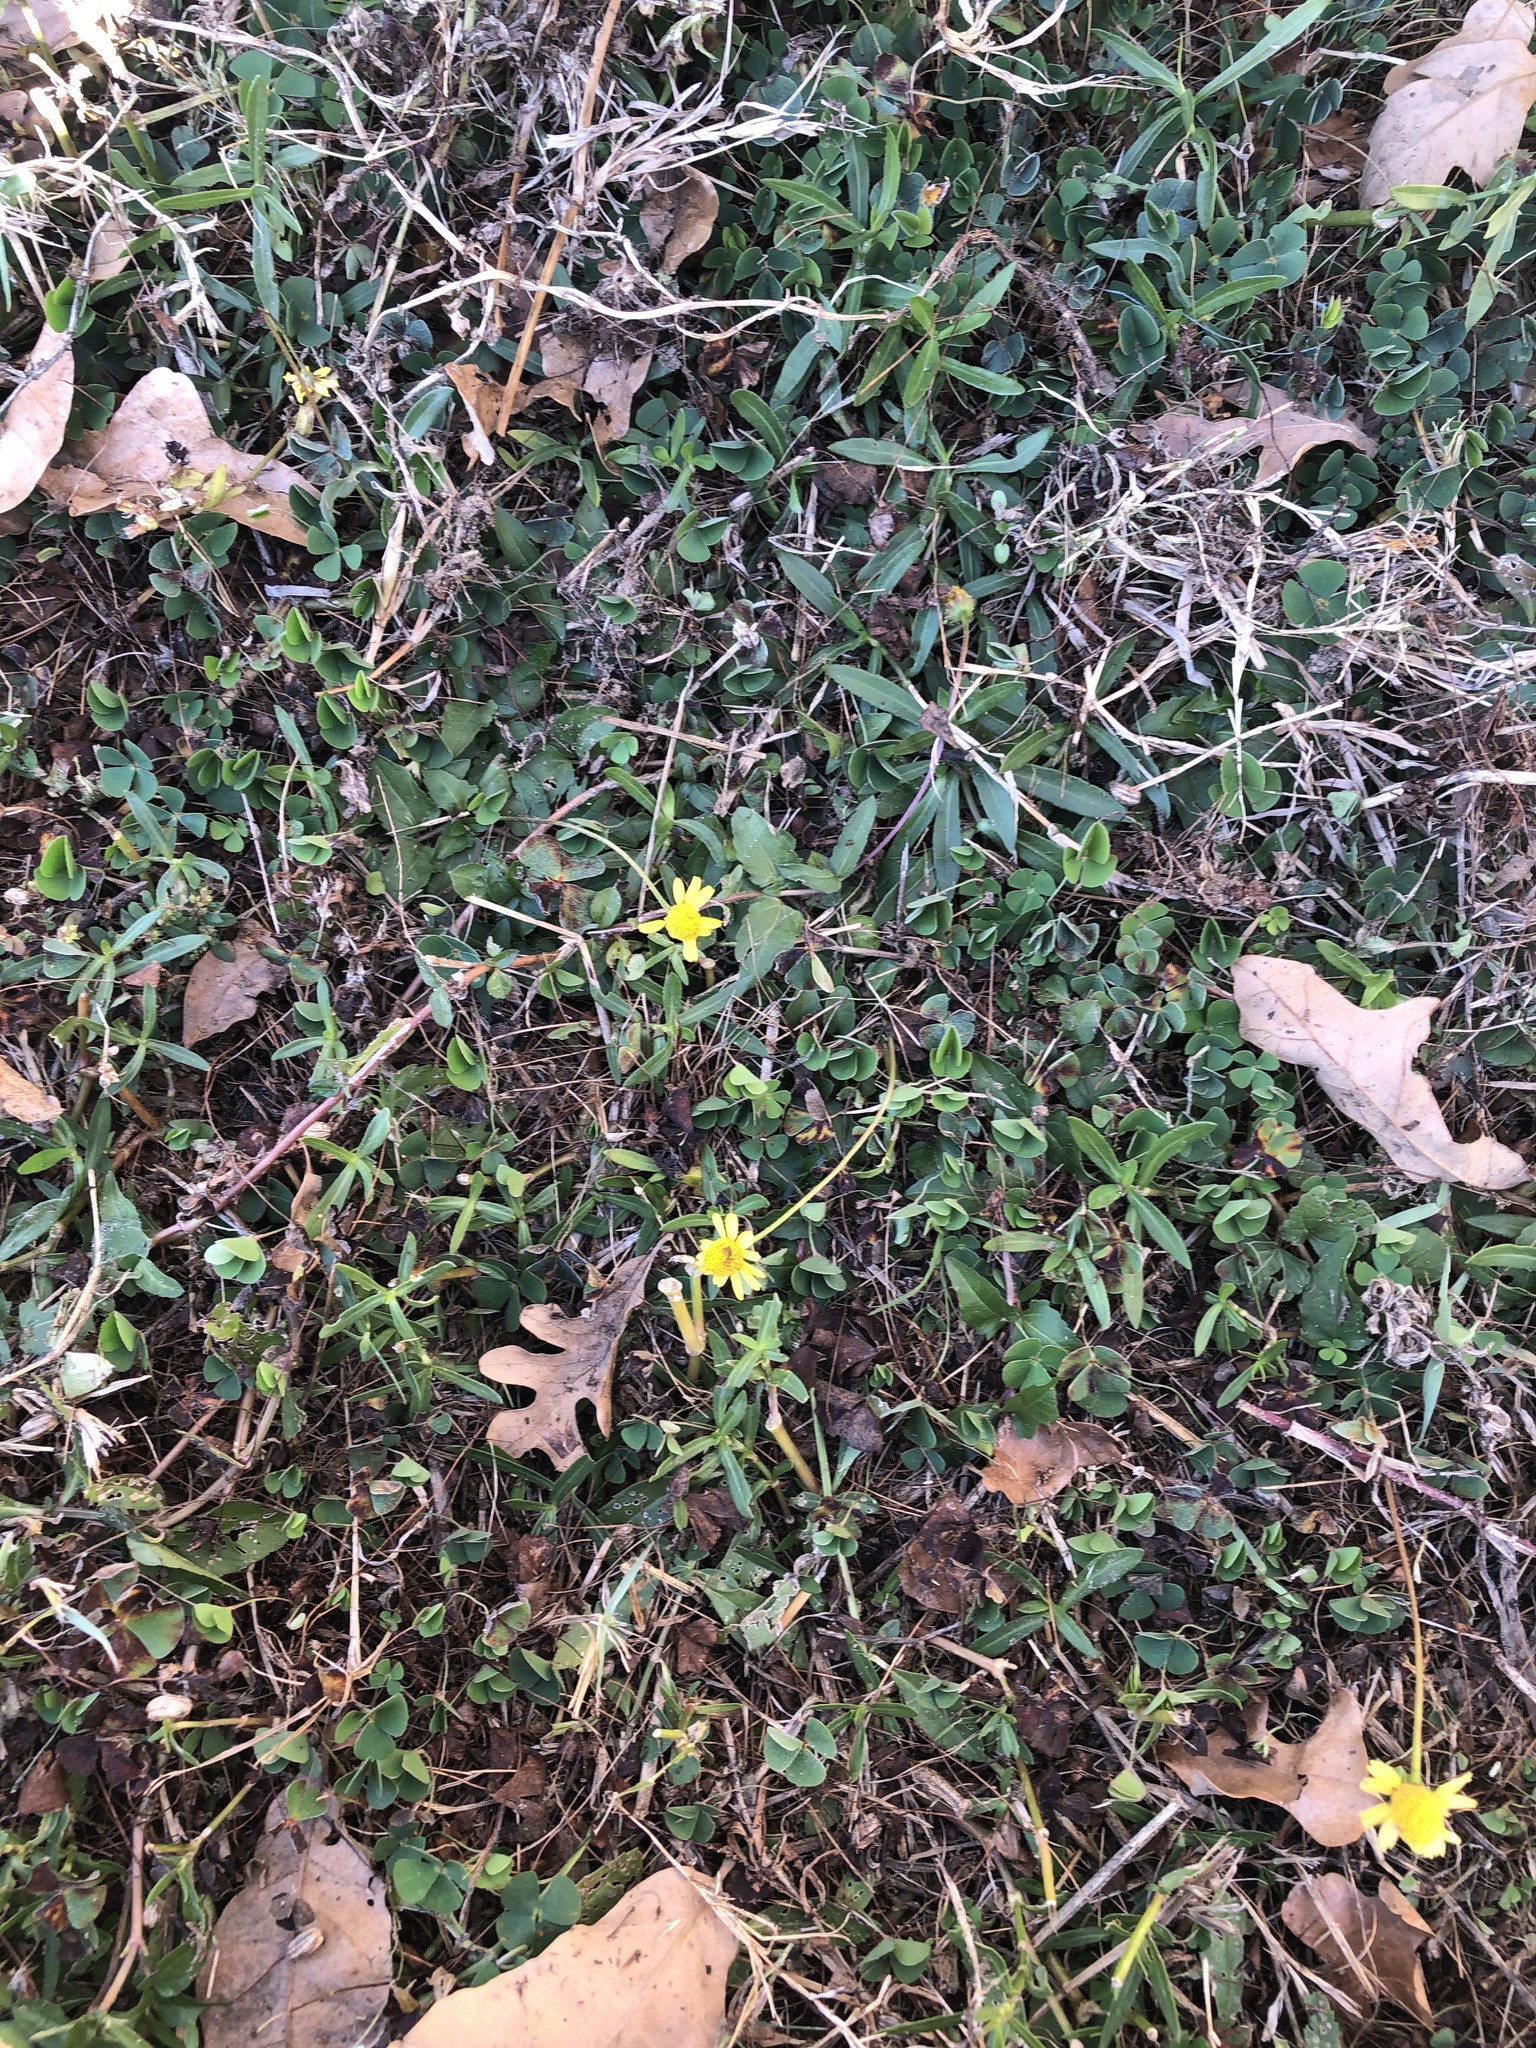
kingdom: Plantae
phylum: Tracheophyta
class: Magnoliopsida
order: Asterales
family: Asteraceae
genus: Acmella
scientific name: Acmella repens
